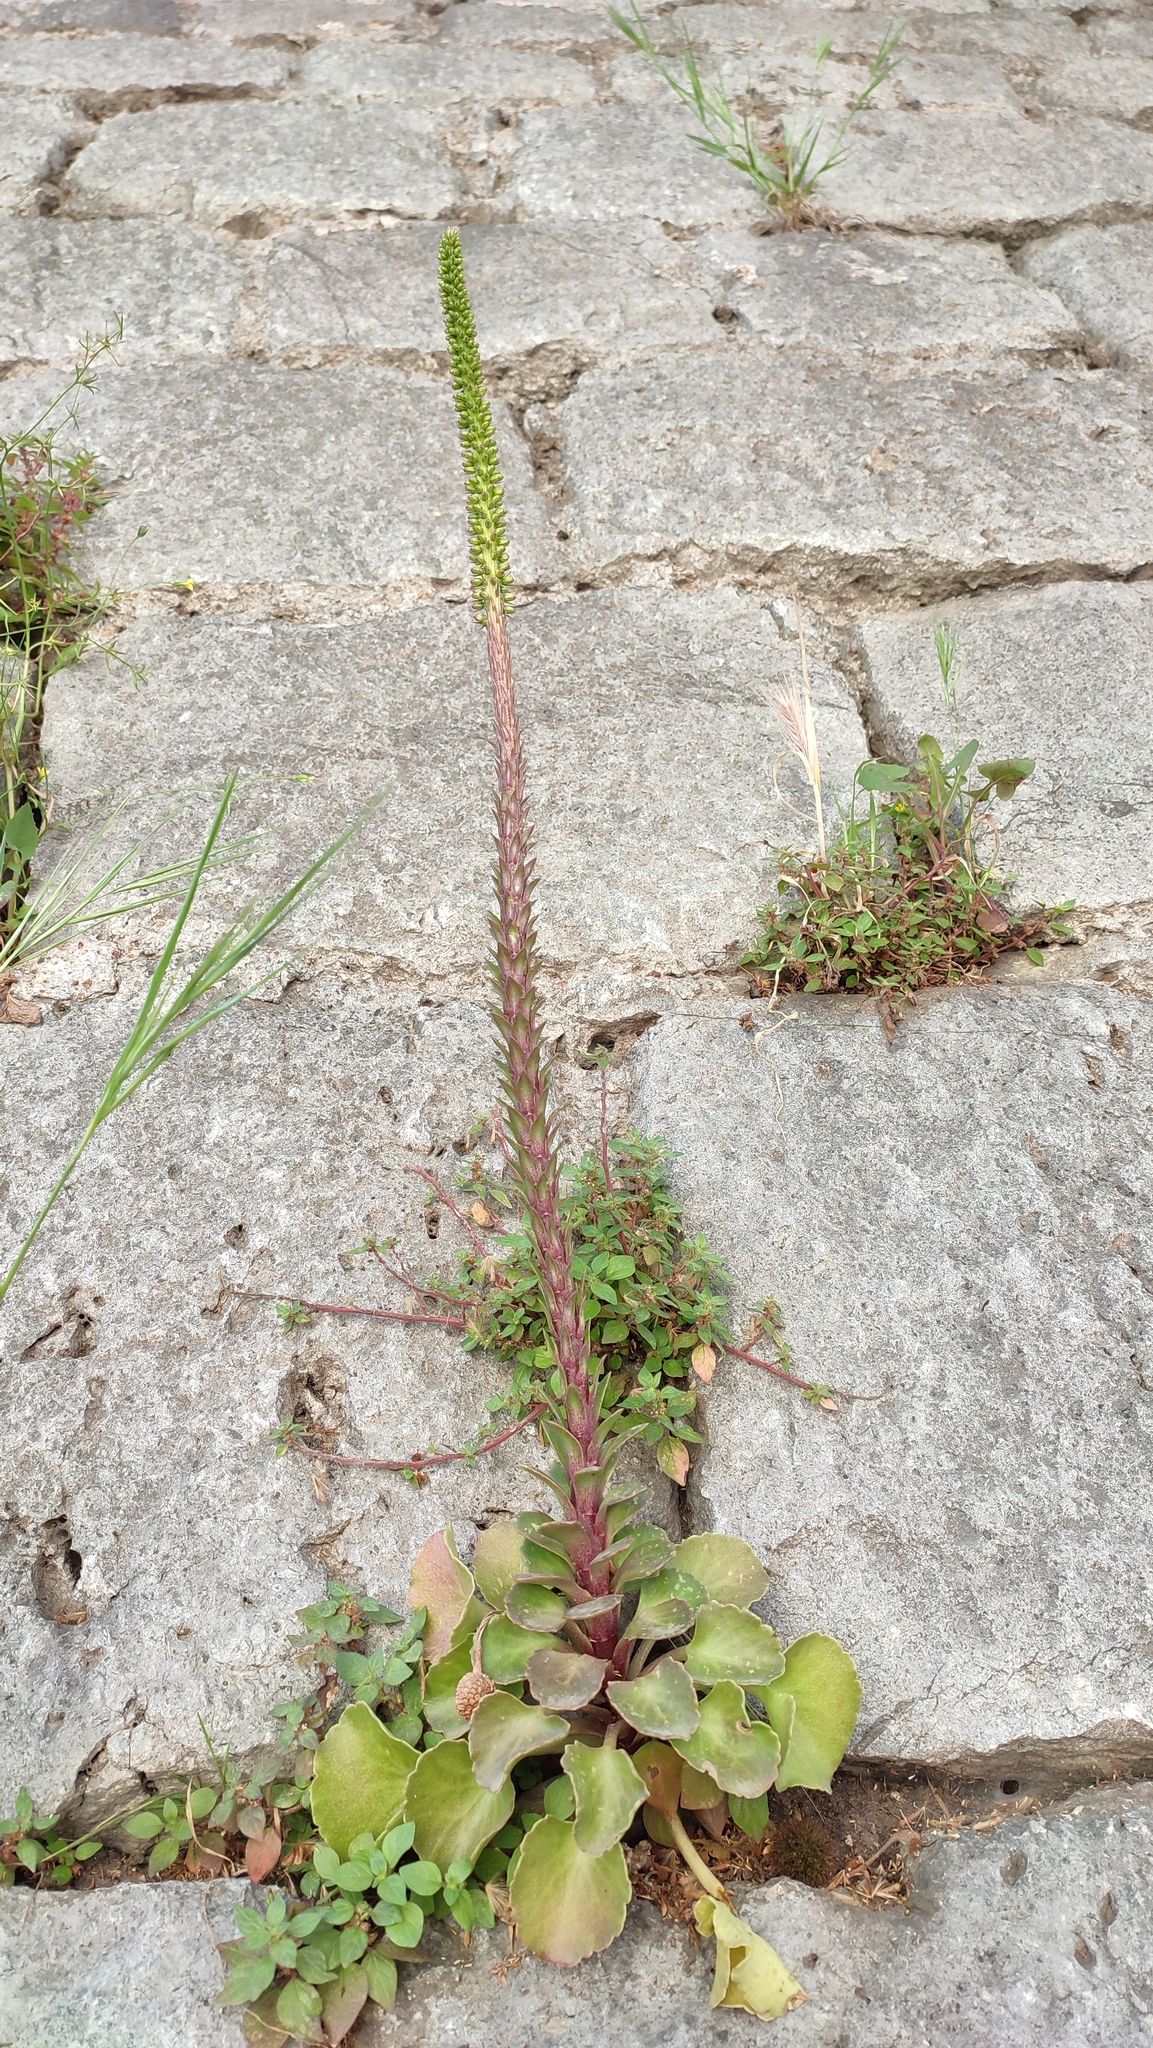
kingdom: Plantae
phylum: Tracheophyta
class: Magnoliopsida
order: Saxifragales
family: Crassulaceae
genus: Umbilicus
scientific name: Umbilicus horizontalis
